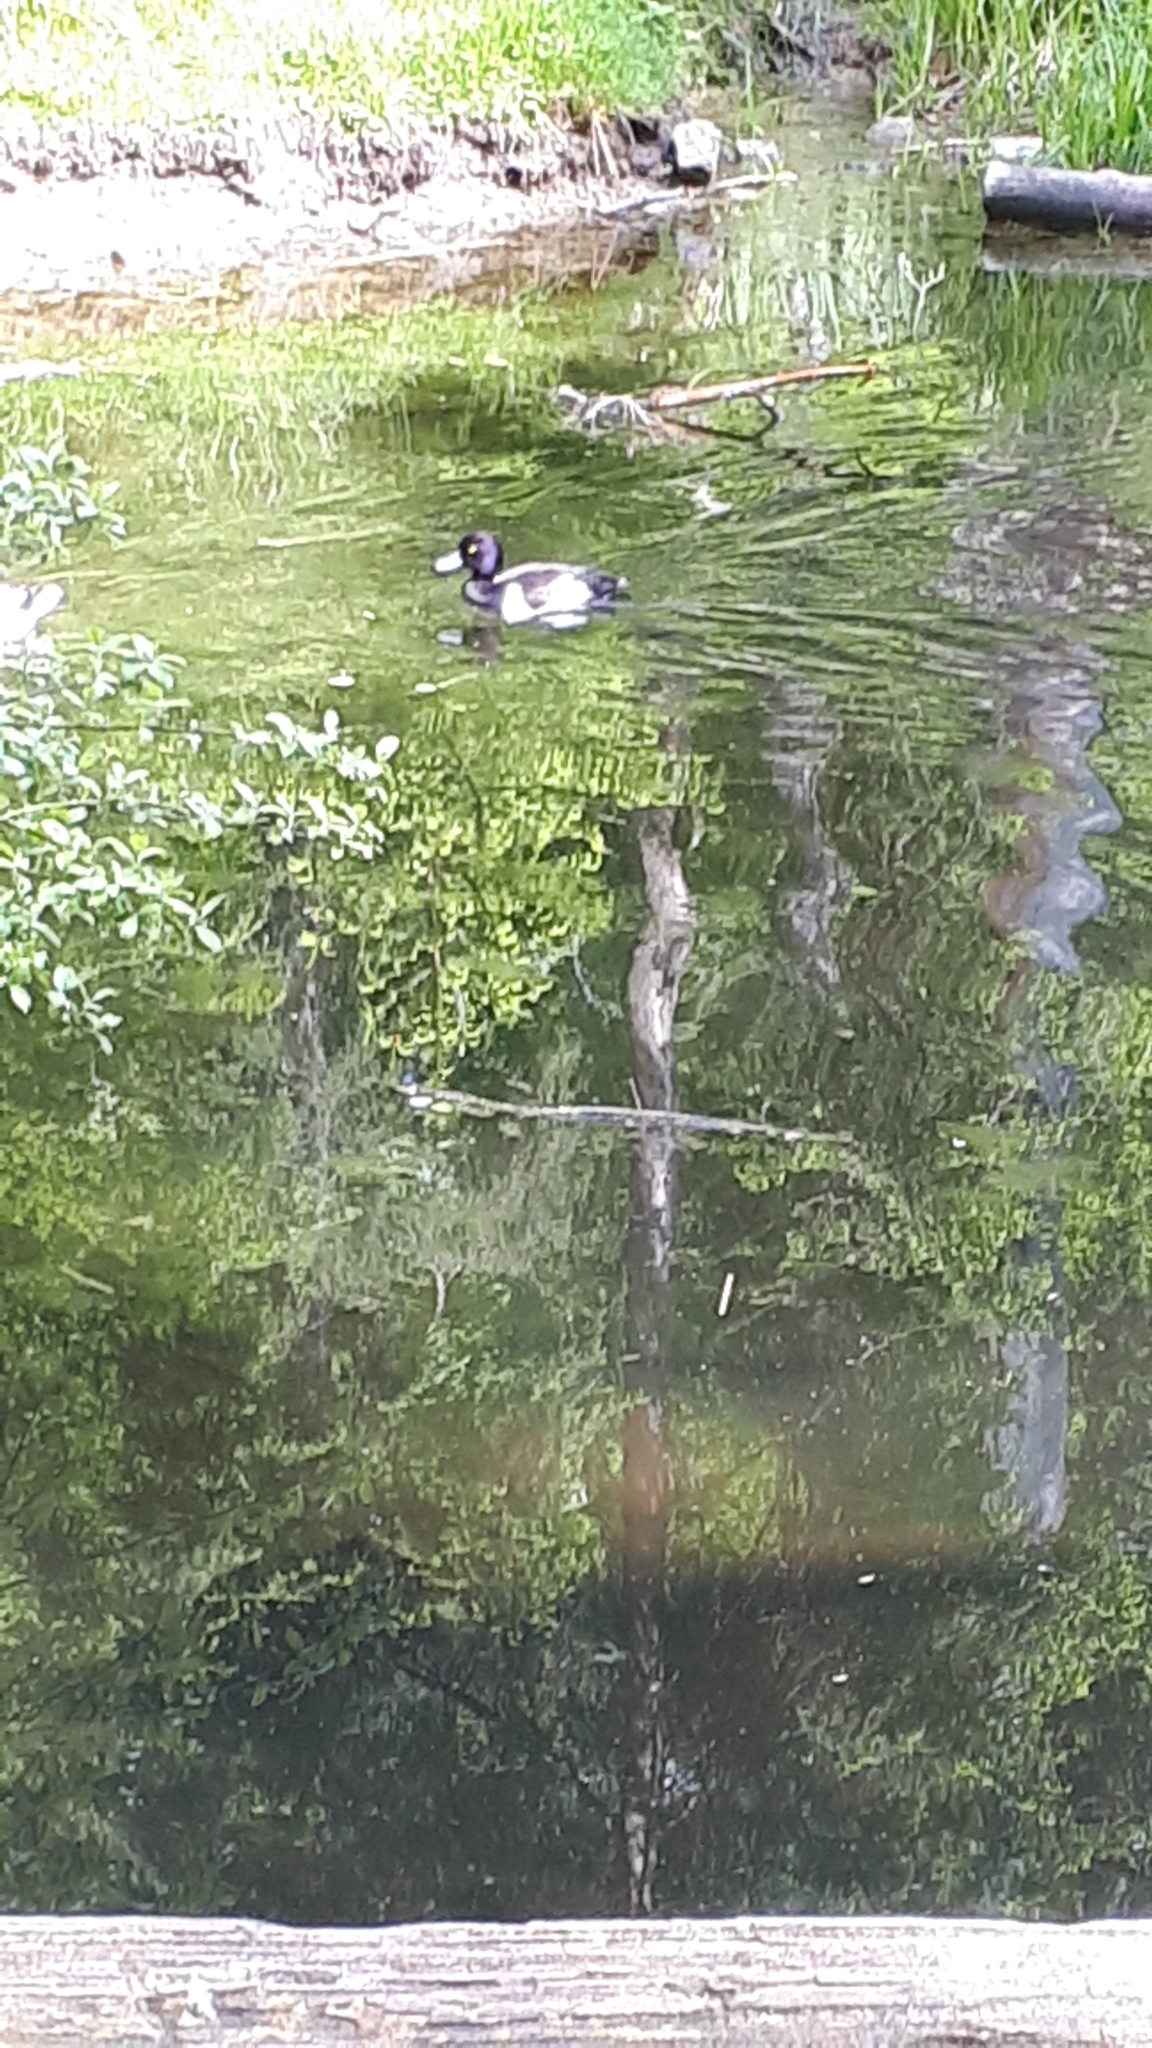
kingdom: Animalia
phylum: Chordata
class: Aves
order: Anseriformes
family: Anatidae
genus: Aythya
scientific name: Aythya fuligula
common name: Tufted duck
